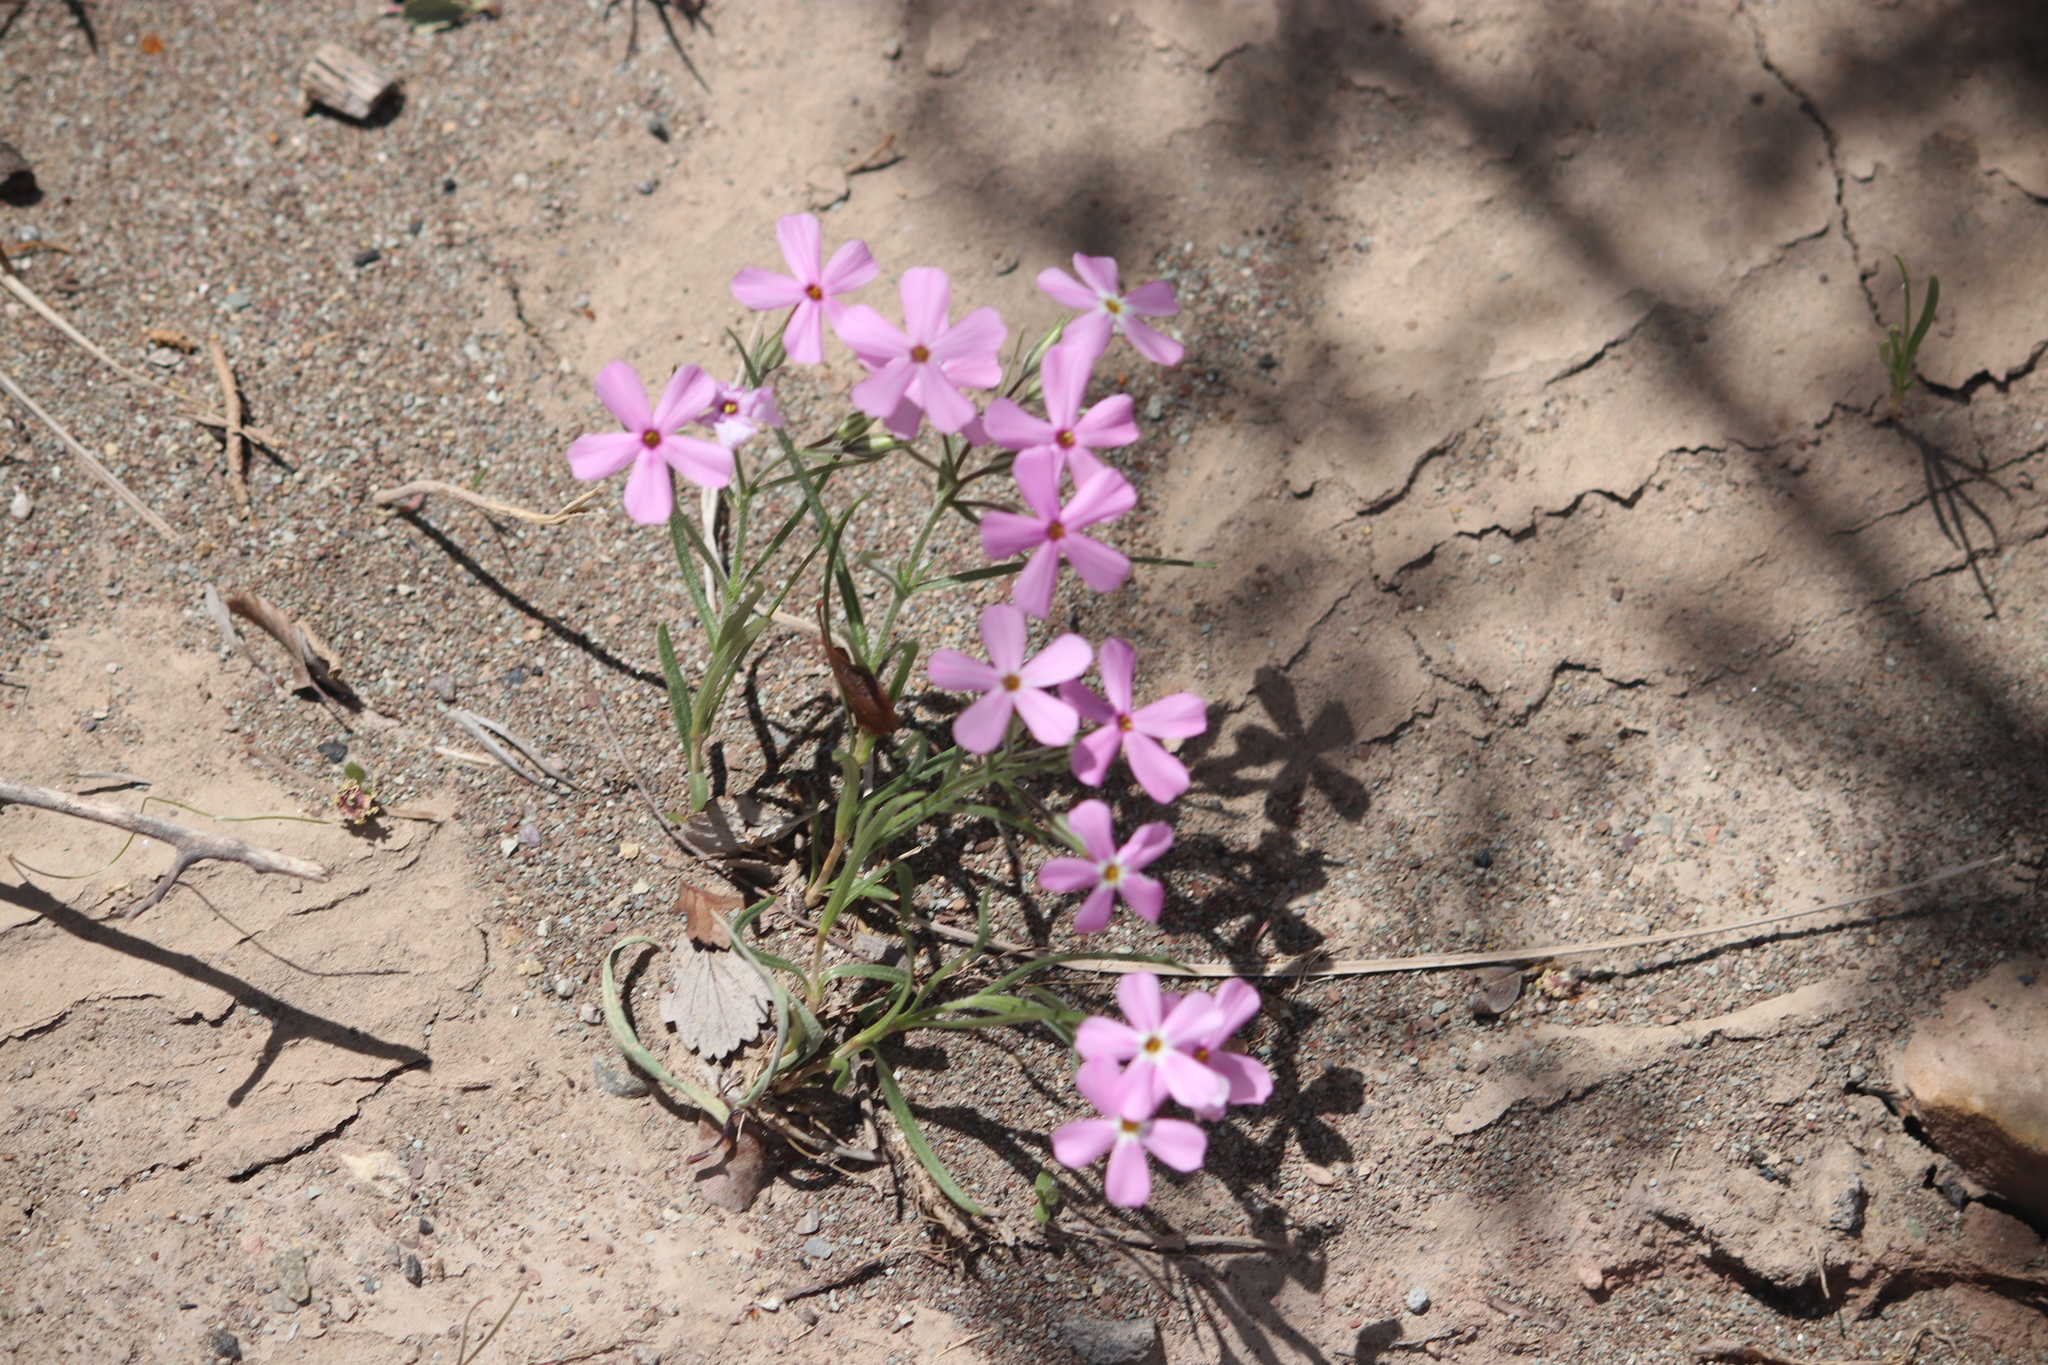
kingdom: Plantae
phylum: Tracheophyta
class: Magnoliopsida
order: Ericales
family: Polemoniaceae
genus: Phlox
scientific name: Phlox longifolia
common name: Longleaf phlox
